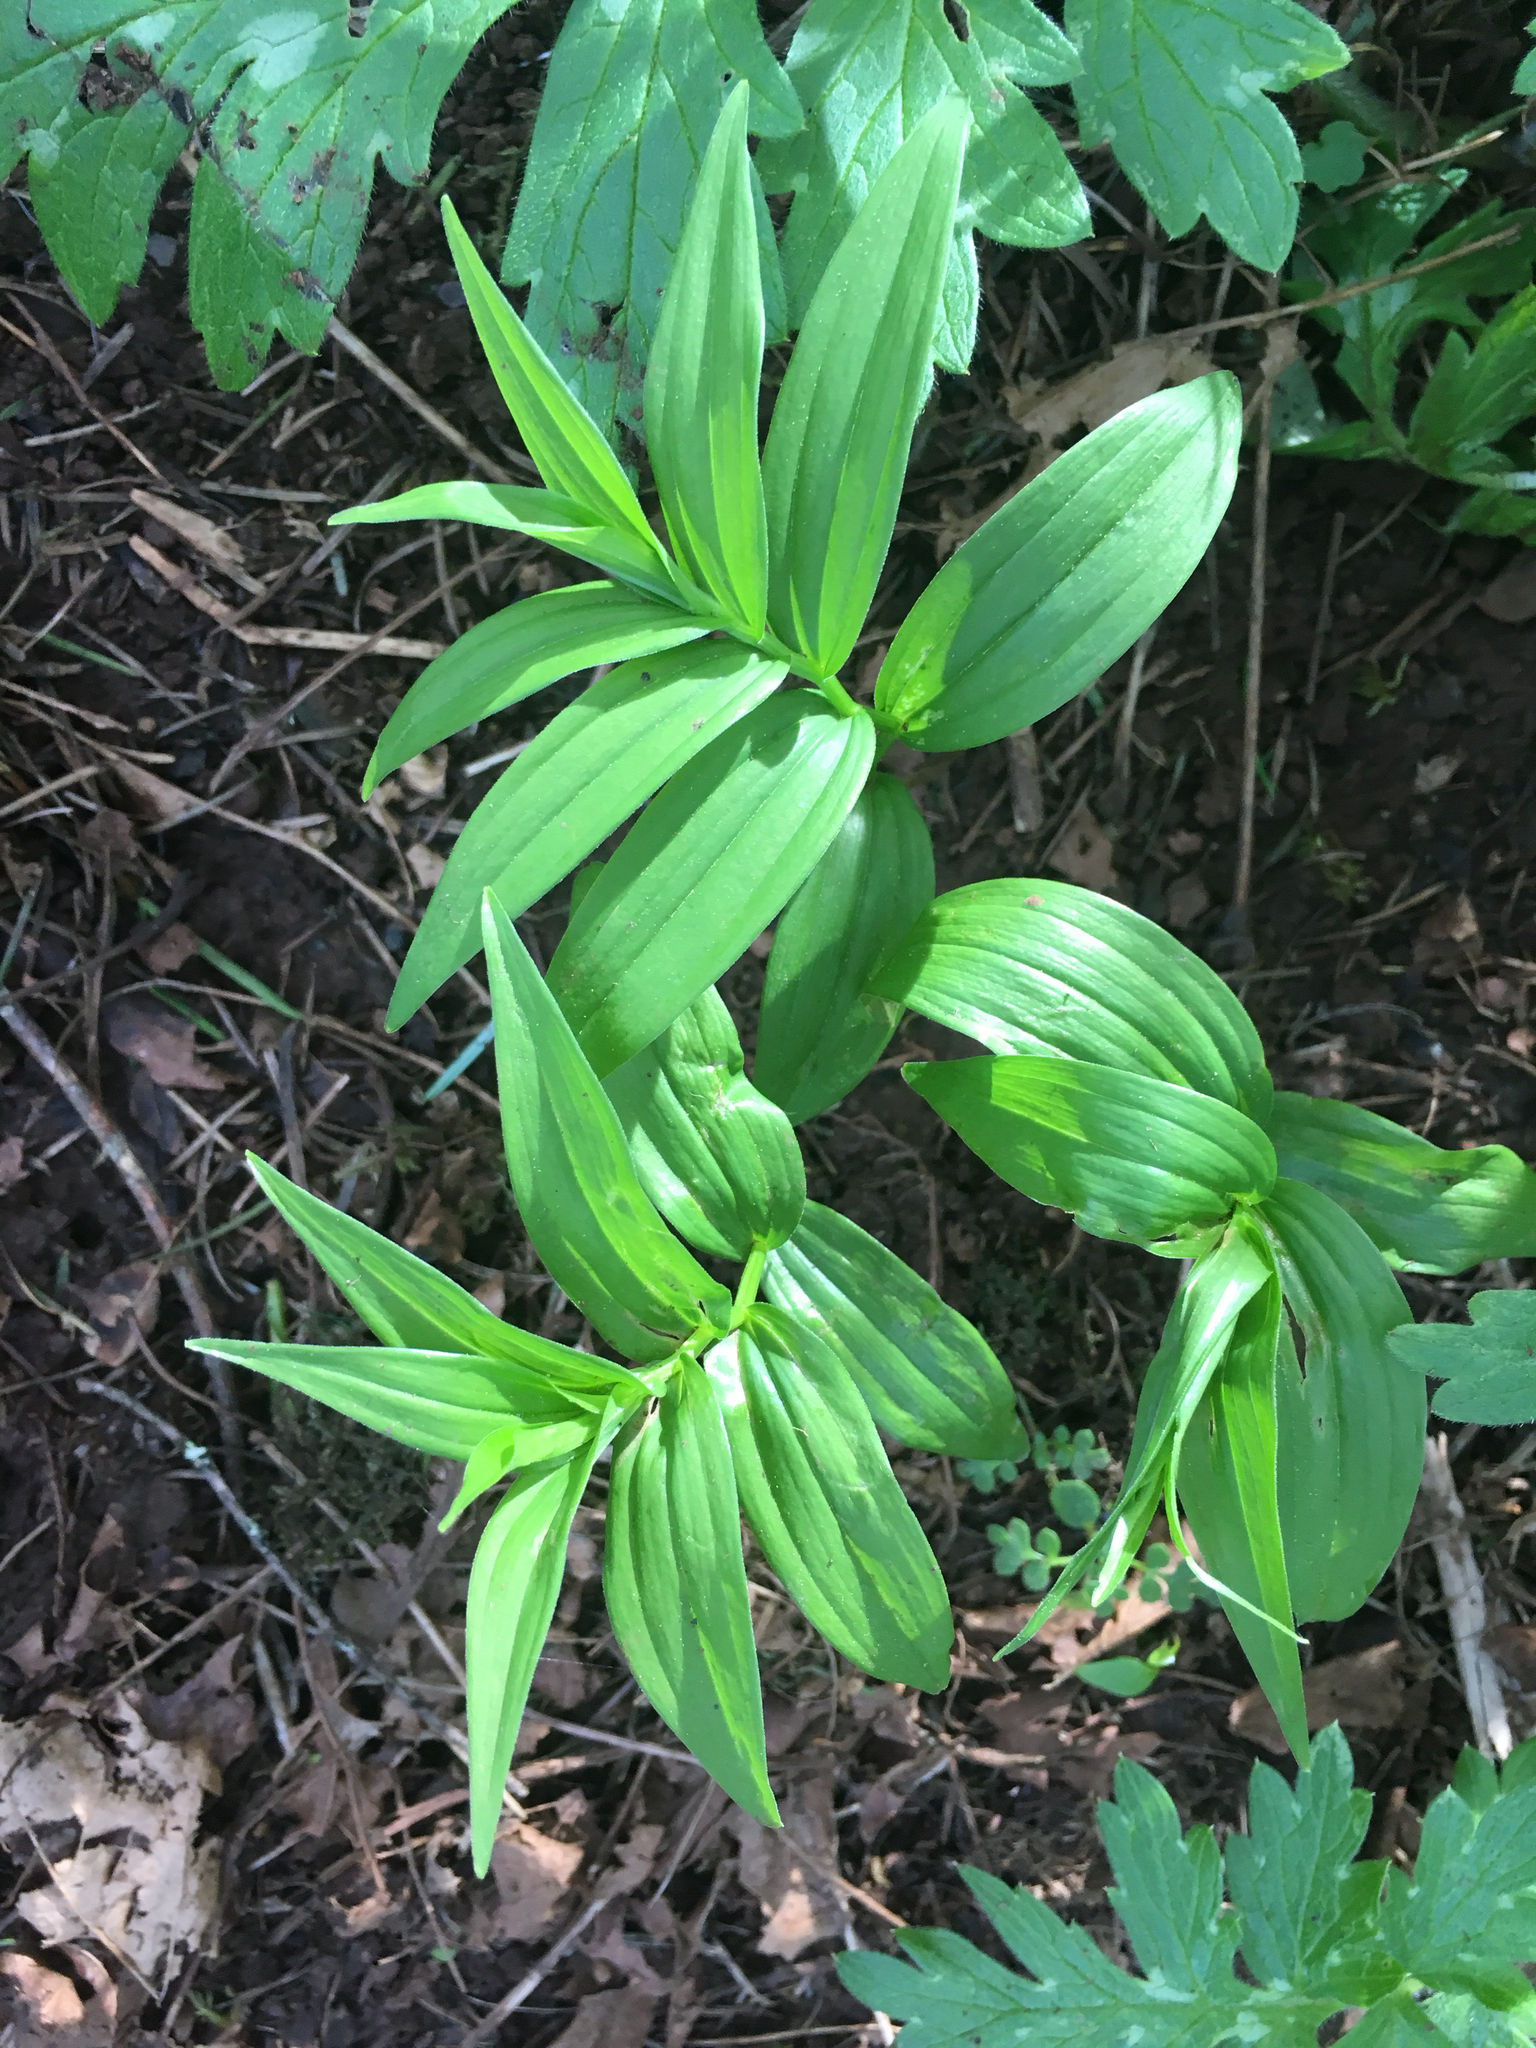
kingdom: Plantae
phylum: Tracheophyta
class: Liliopsida
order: Asparagales
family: Asparagaceae
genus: Maianthemum
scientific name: Maianthemum stellatum
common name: Little false solomon's seal
